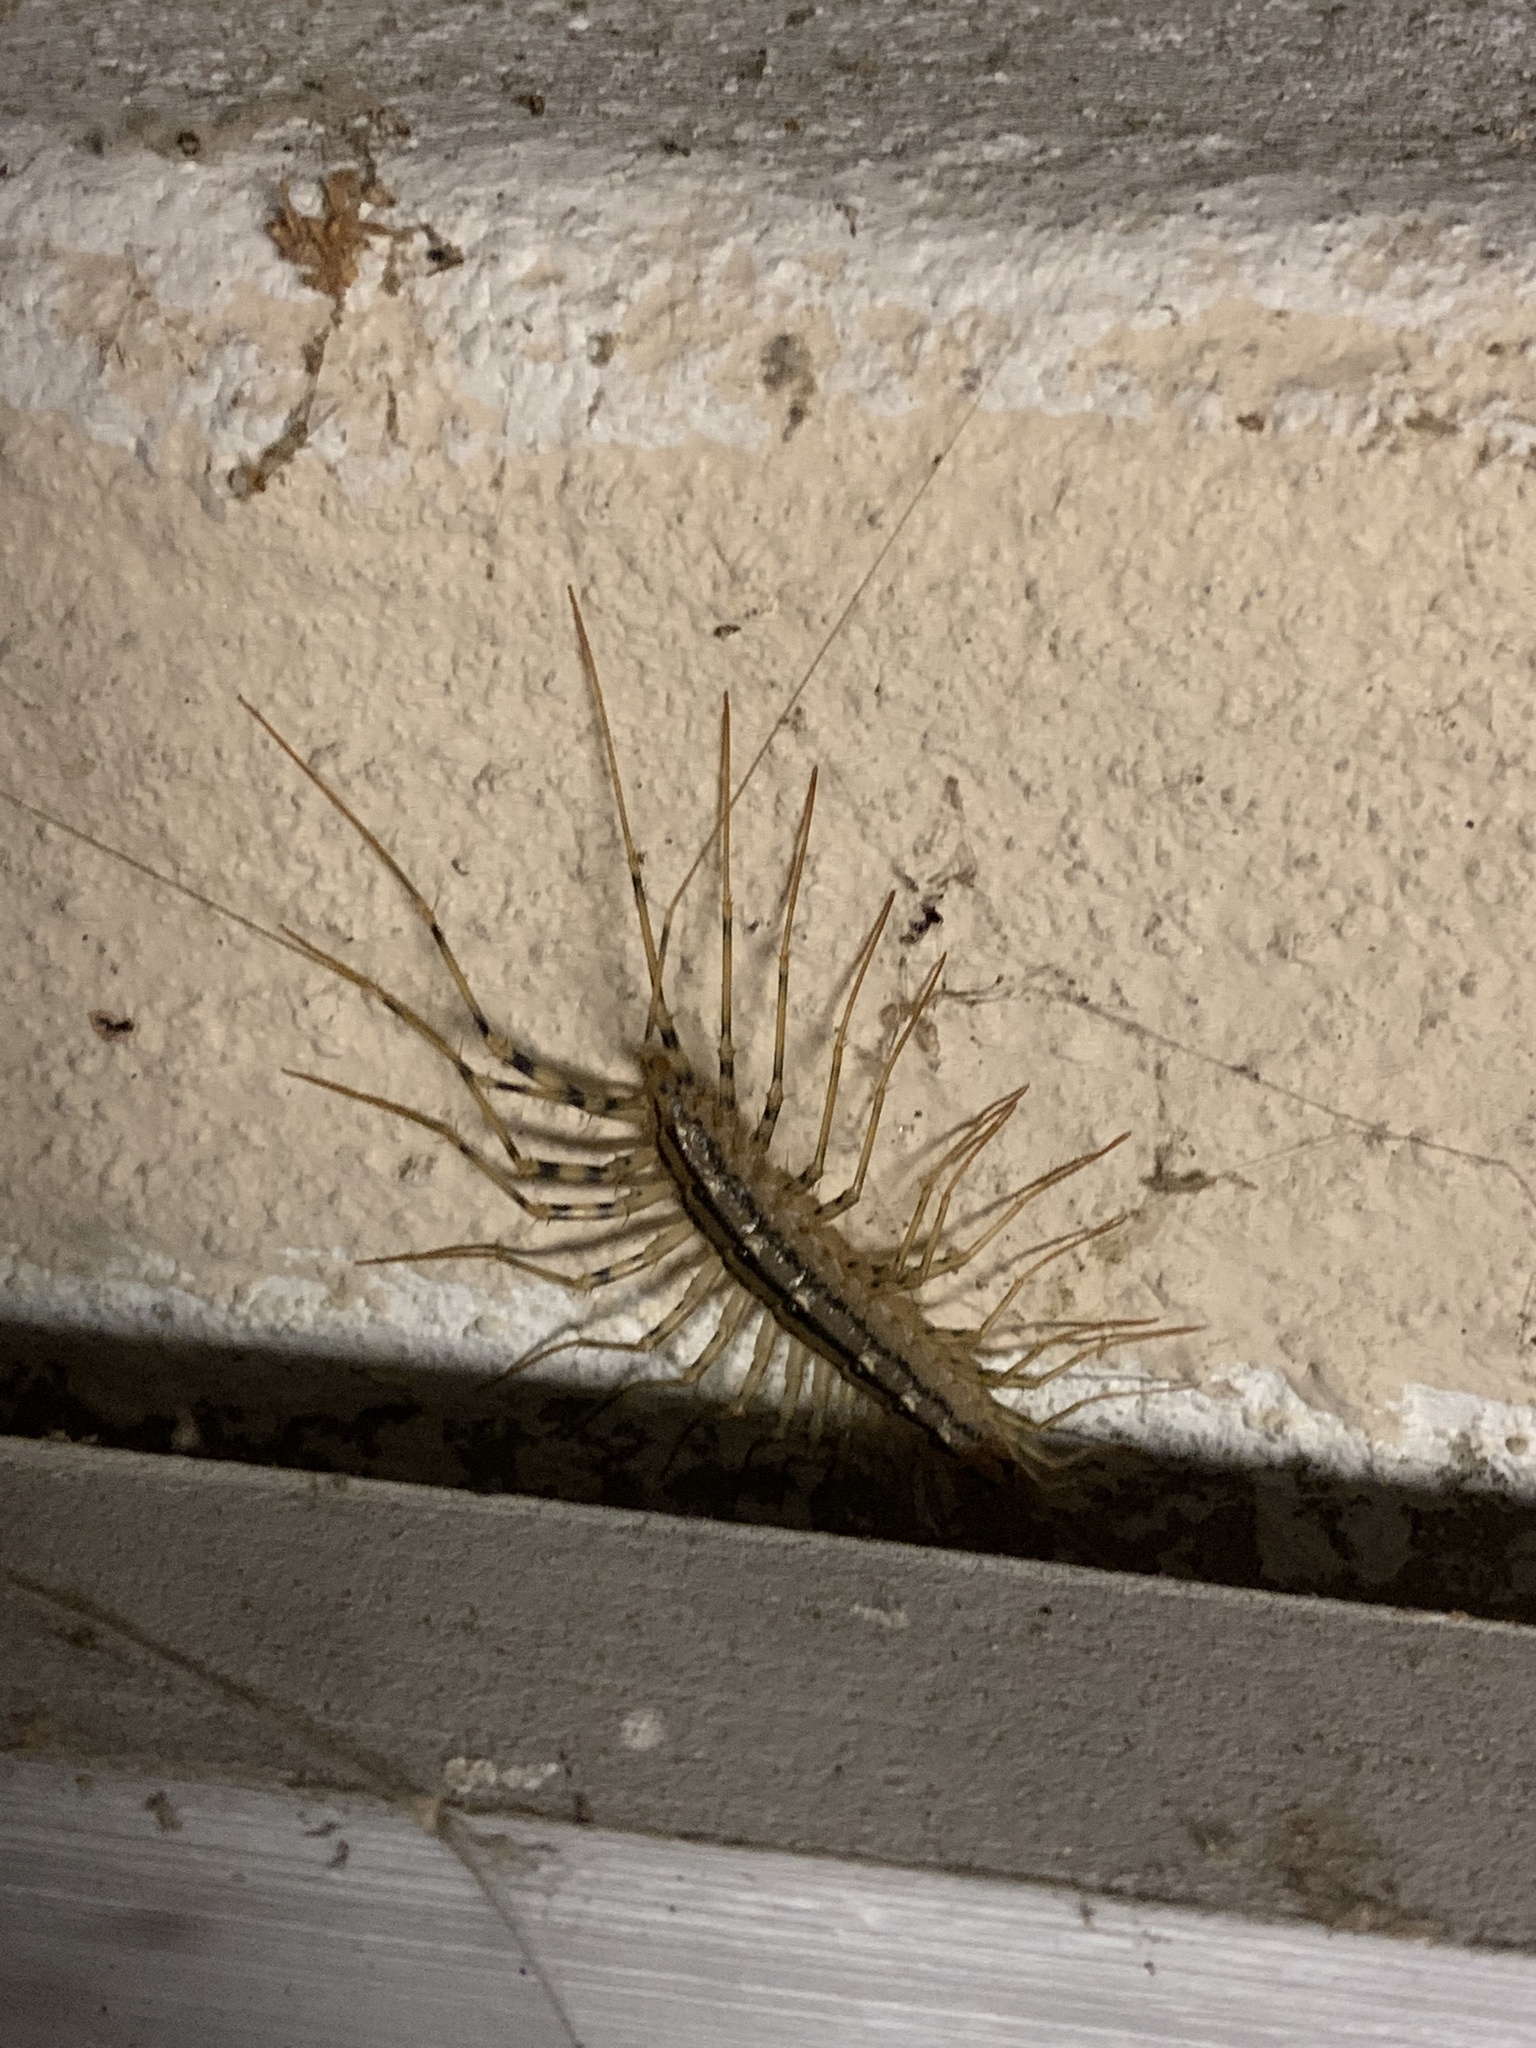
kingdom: Animalia
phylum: Arthropoda
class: Chilopoda
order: Scutigeromorpha
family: Scutigeridae
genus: Scutigera
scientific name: Scutigera coleoptrata
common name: House centipede
